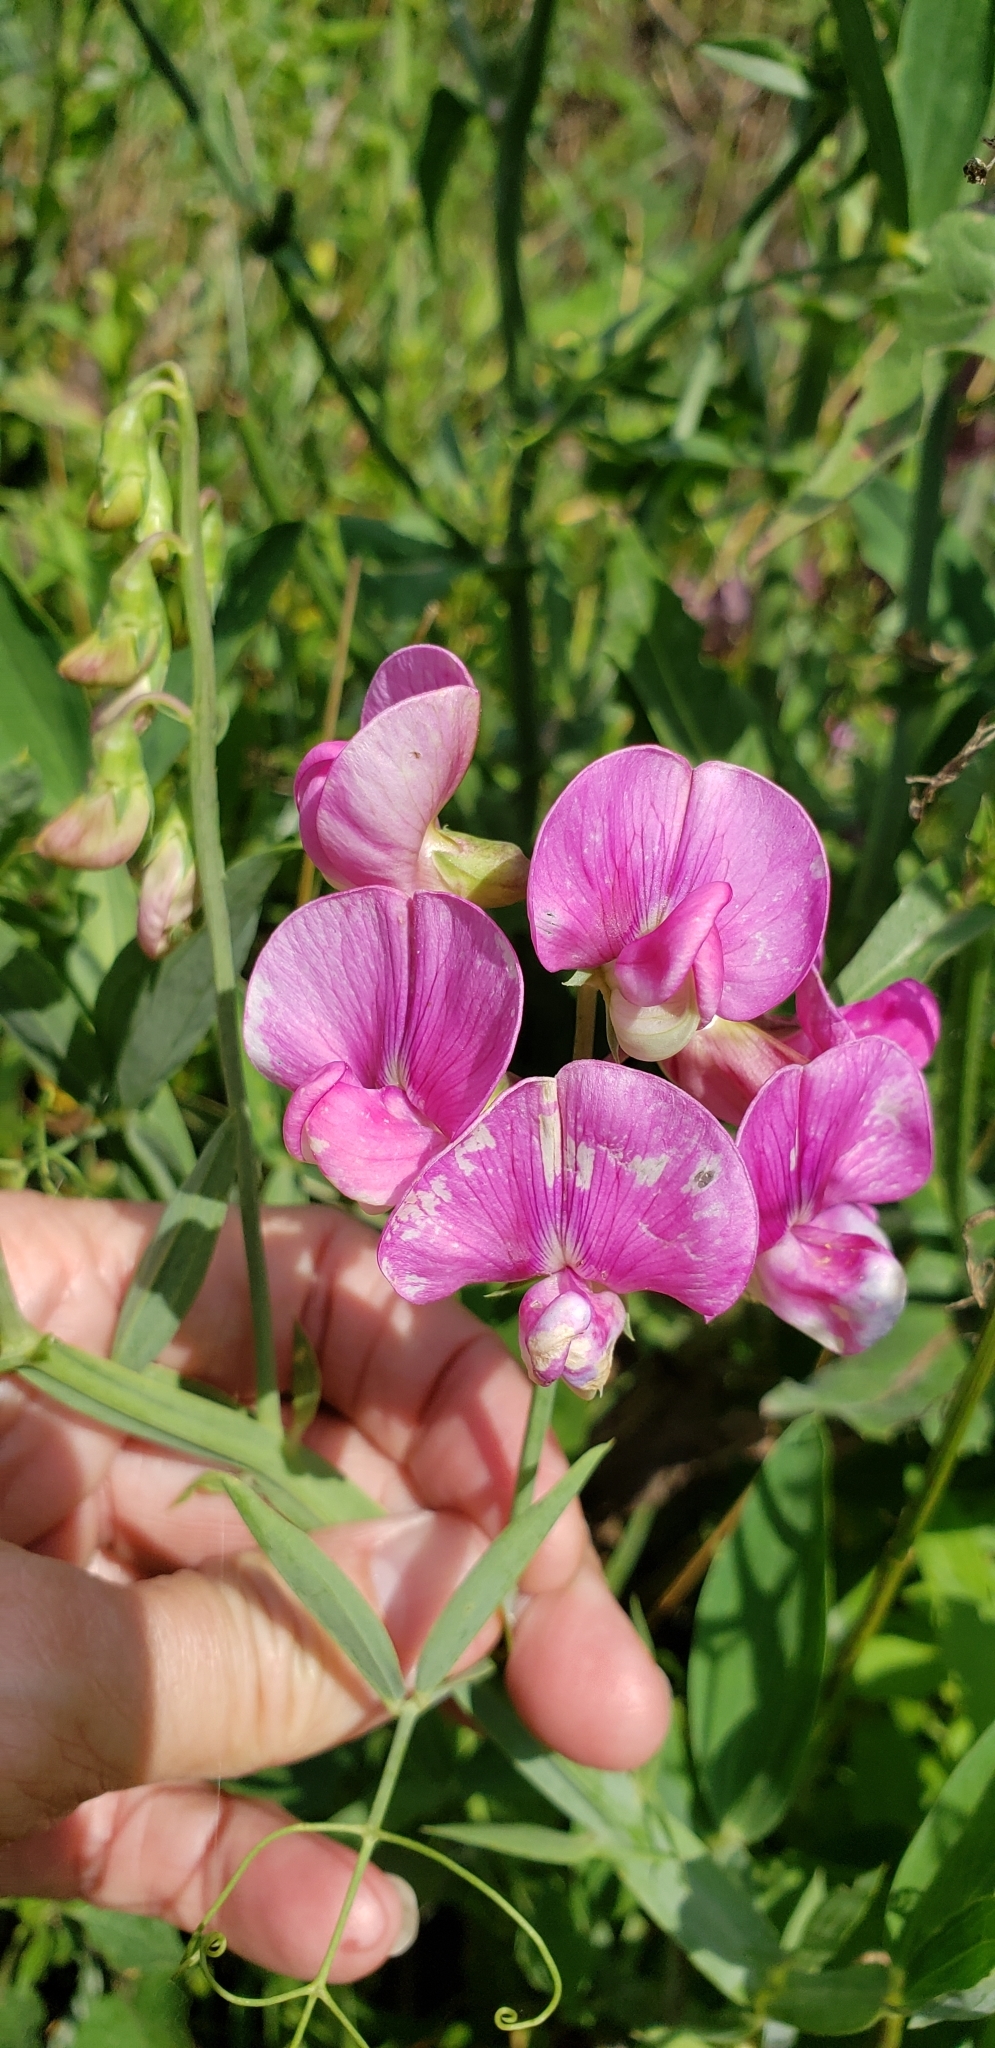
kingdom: Plantae
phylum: Tracheophyta
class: Magnoliopsida
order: Fabales
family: Fabaceae
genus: Lathyrus
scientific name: Lathyrus latifolius
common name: Perennial pea
